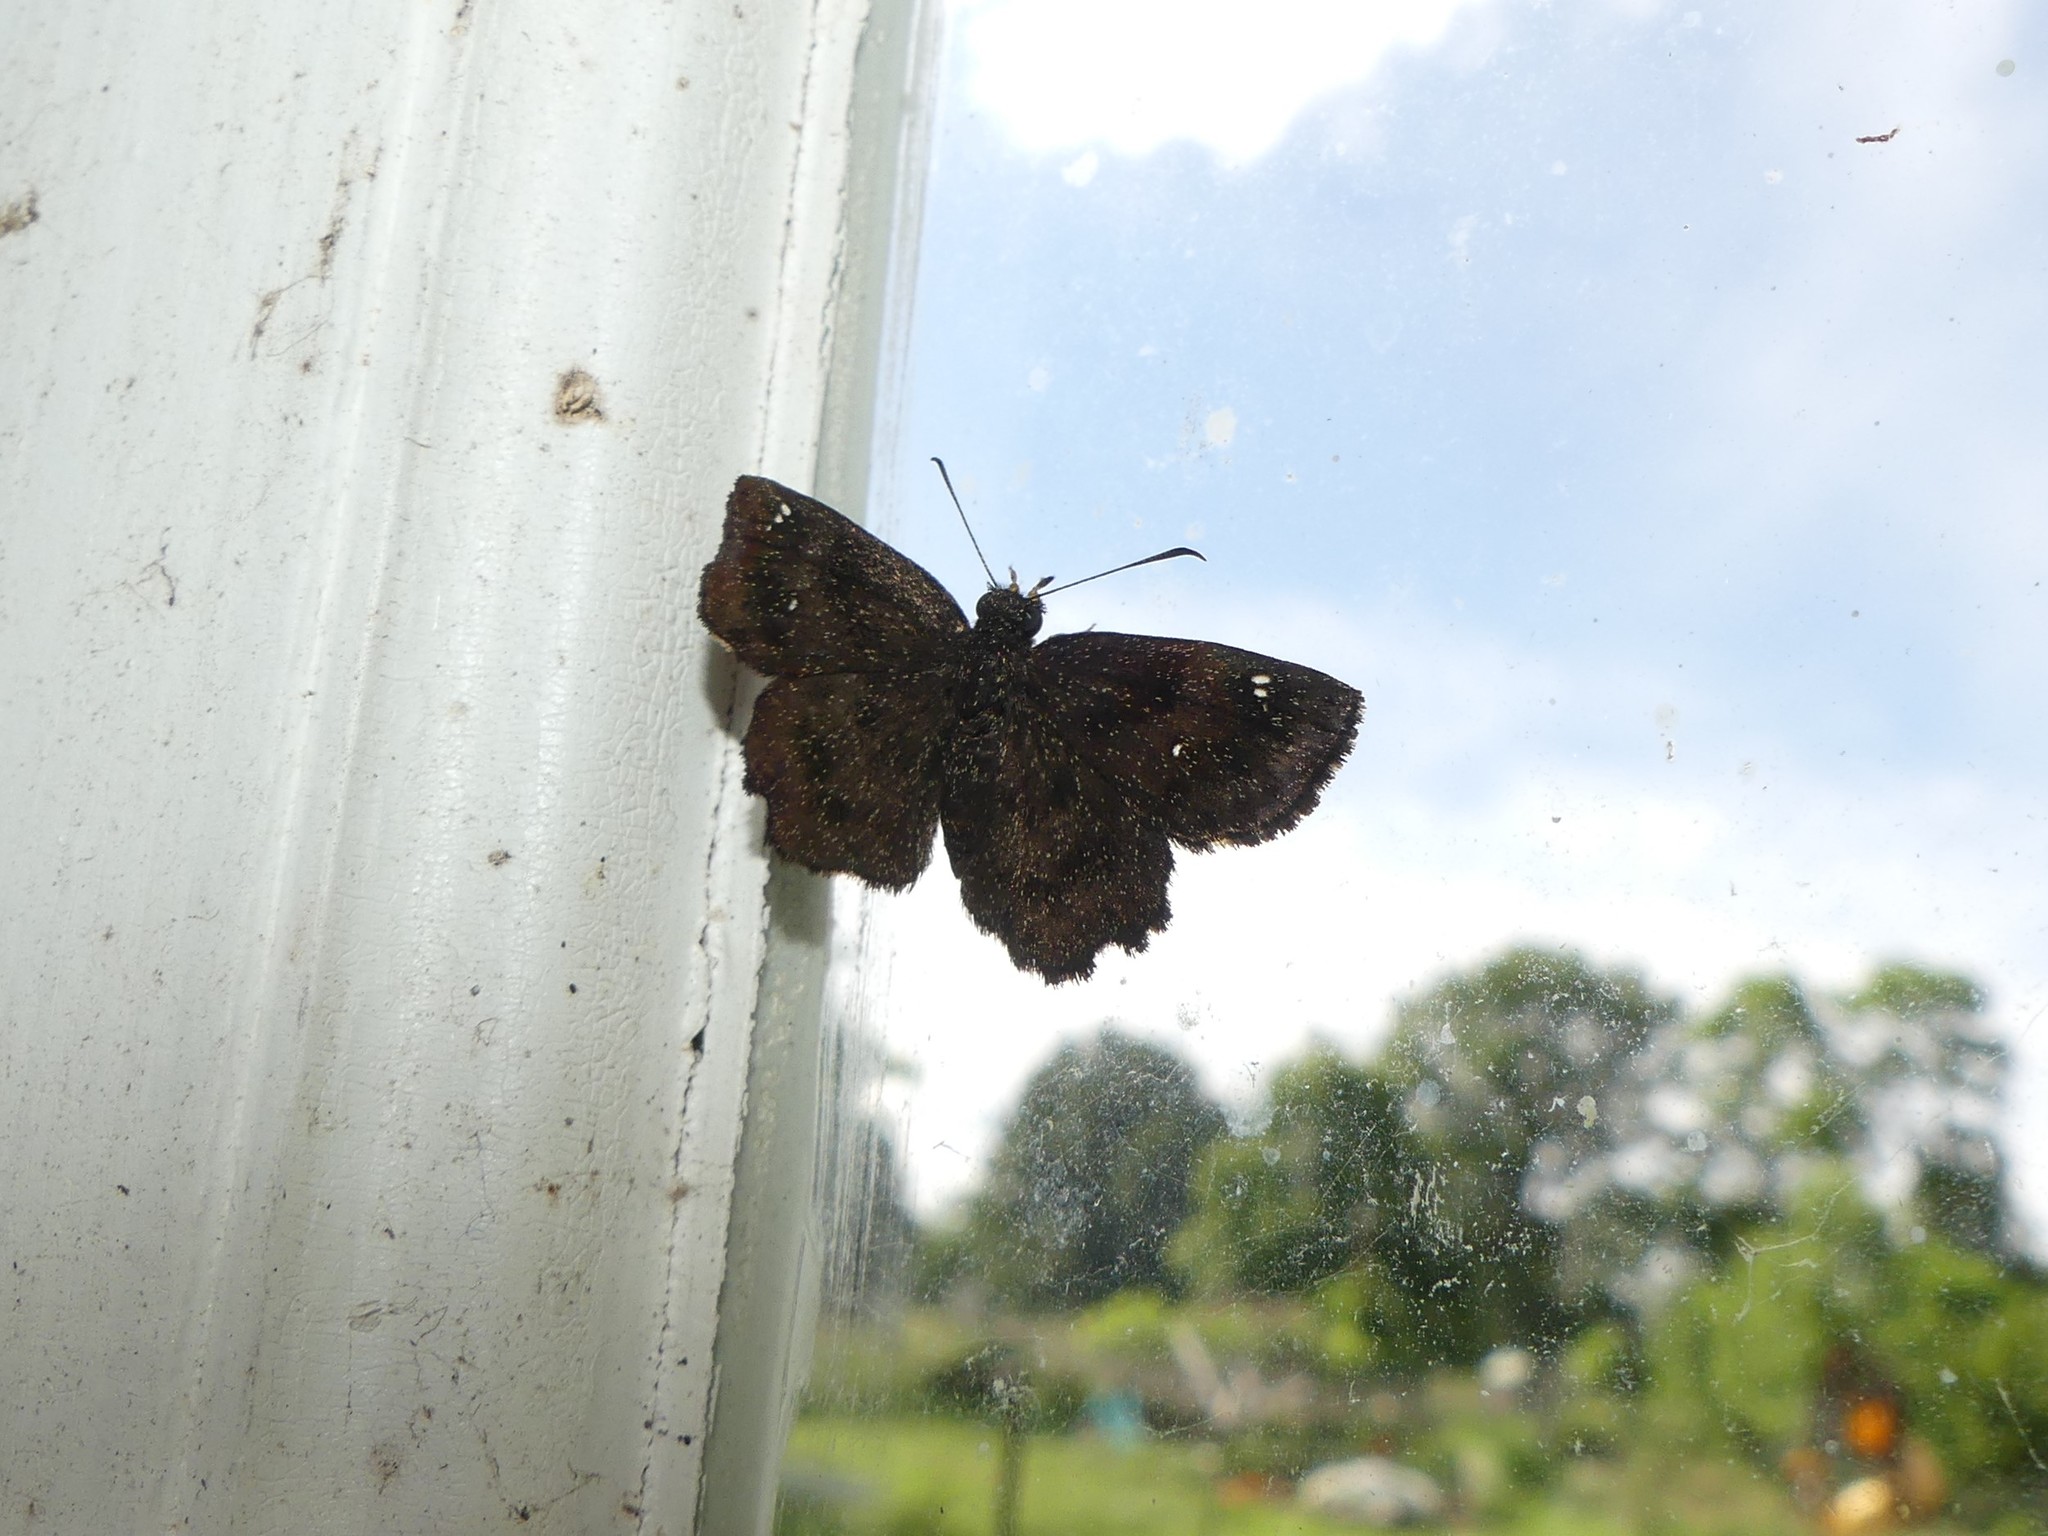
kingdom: Animalia
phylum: Arthropoda
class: Insecta
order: Lepidoptera
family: Hesperiidae
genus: Staphylus
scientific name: Staphylus mazans
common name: Mazans scallopwing
